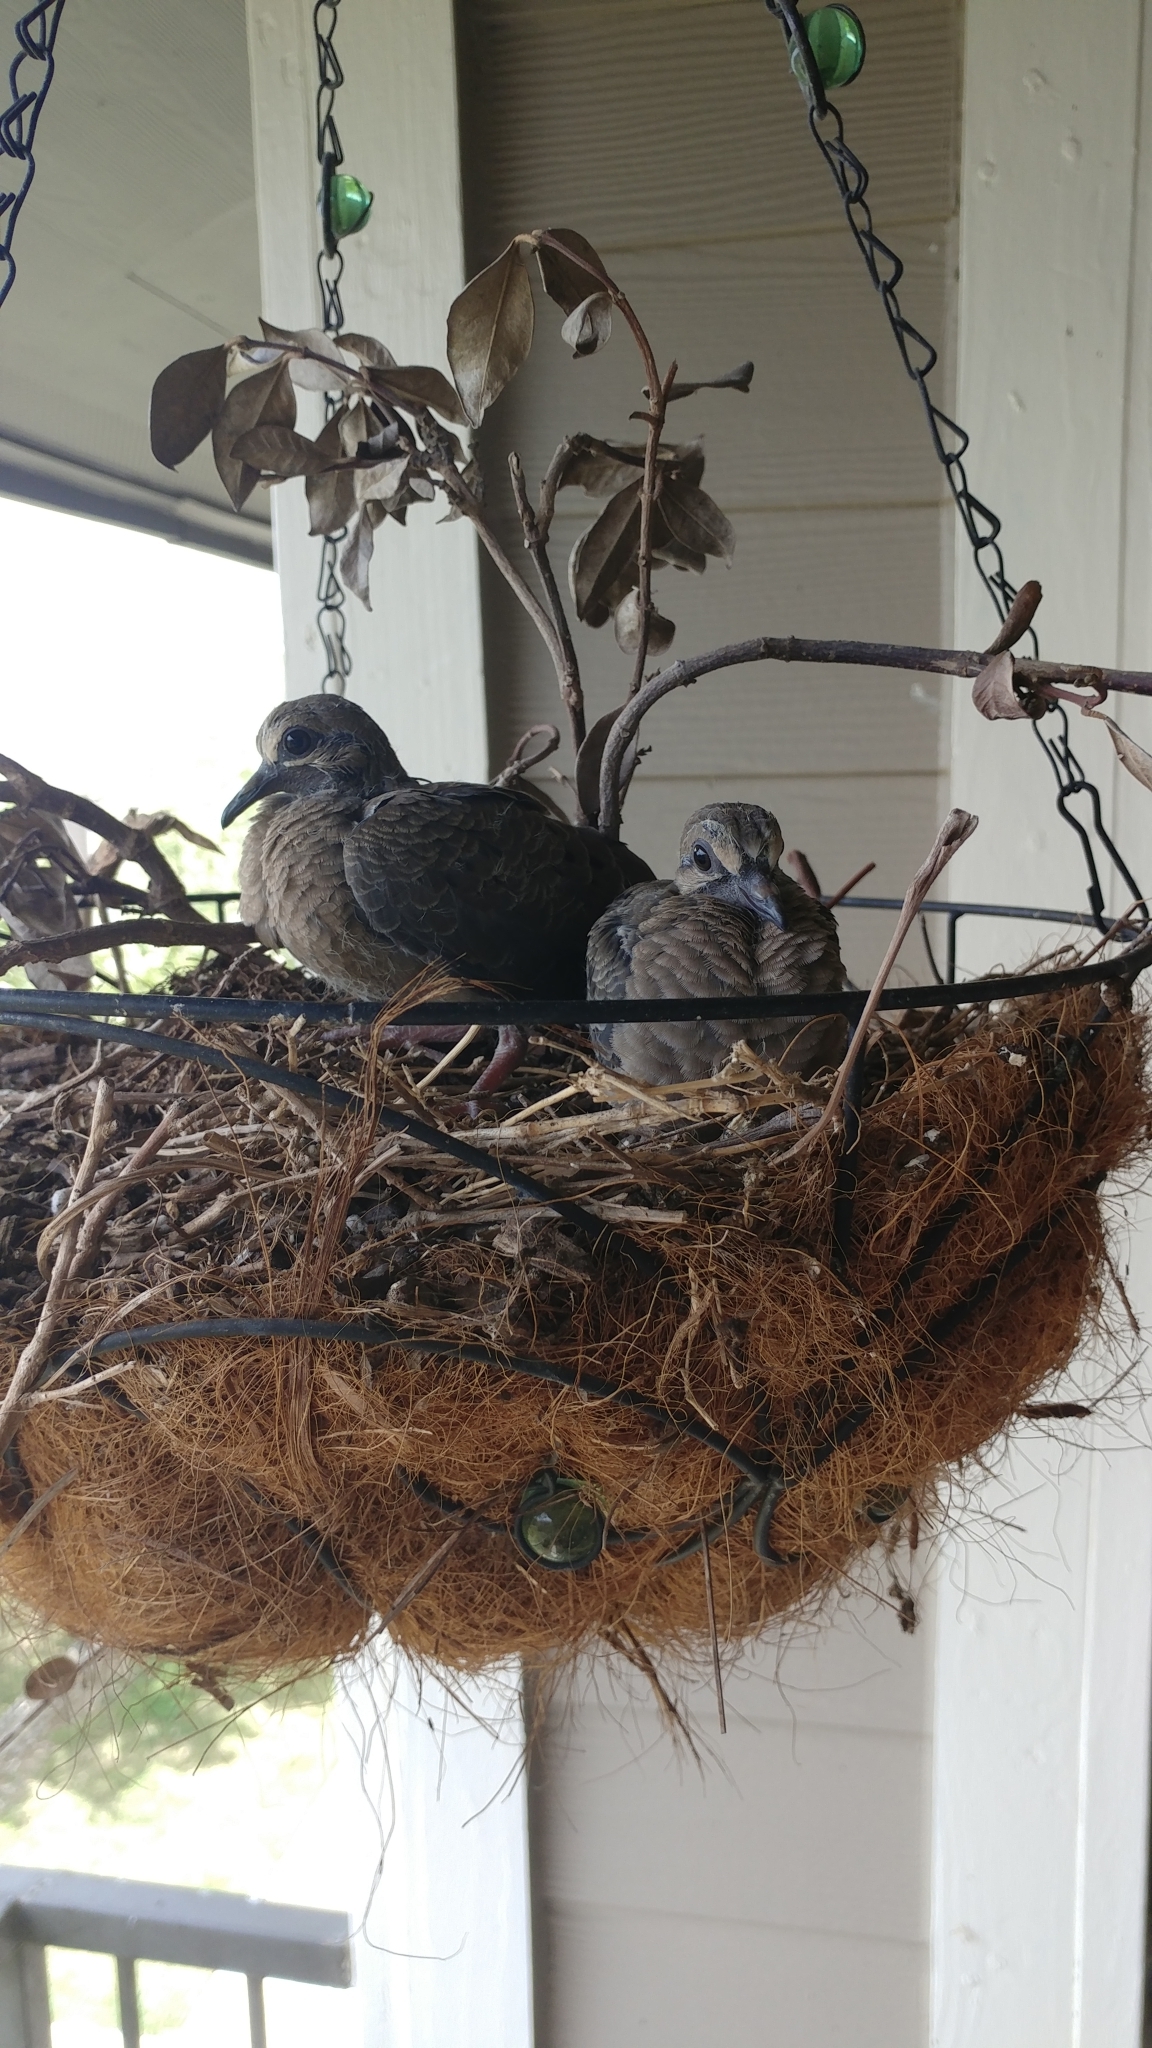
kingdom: Animalia
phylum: Chordata
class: Aves
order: Columbiformes
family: Columbidae
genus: Zenaida
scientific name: Zenaida macroura
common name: Mourning dove
